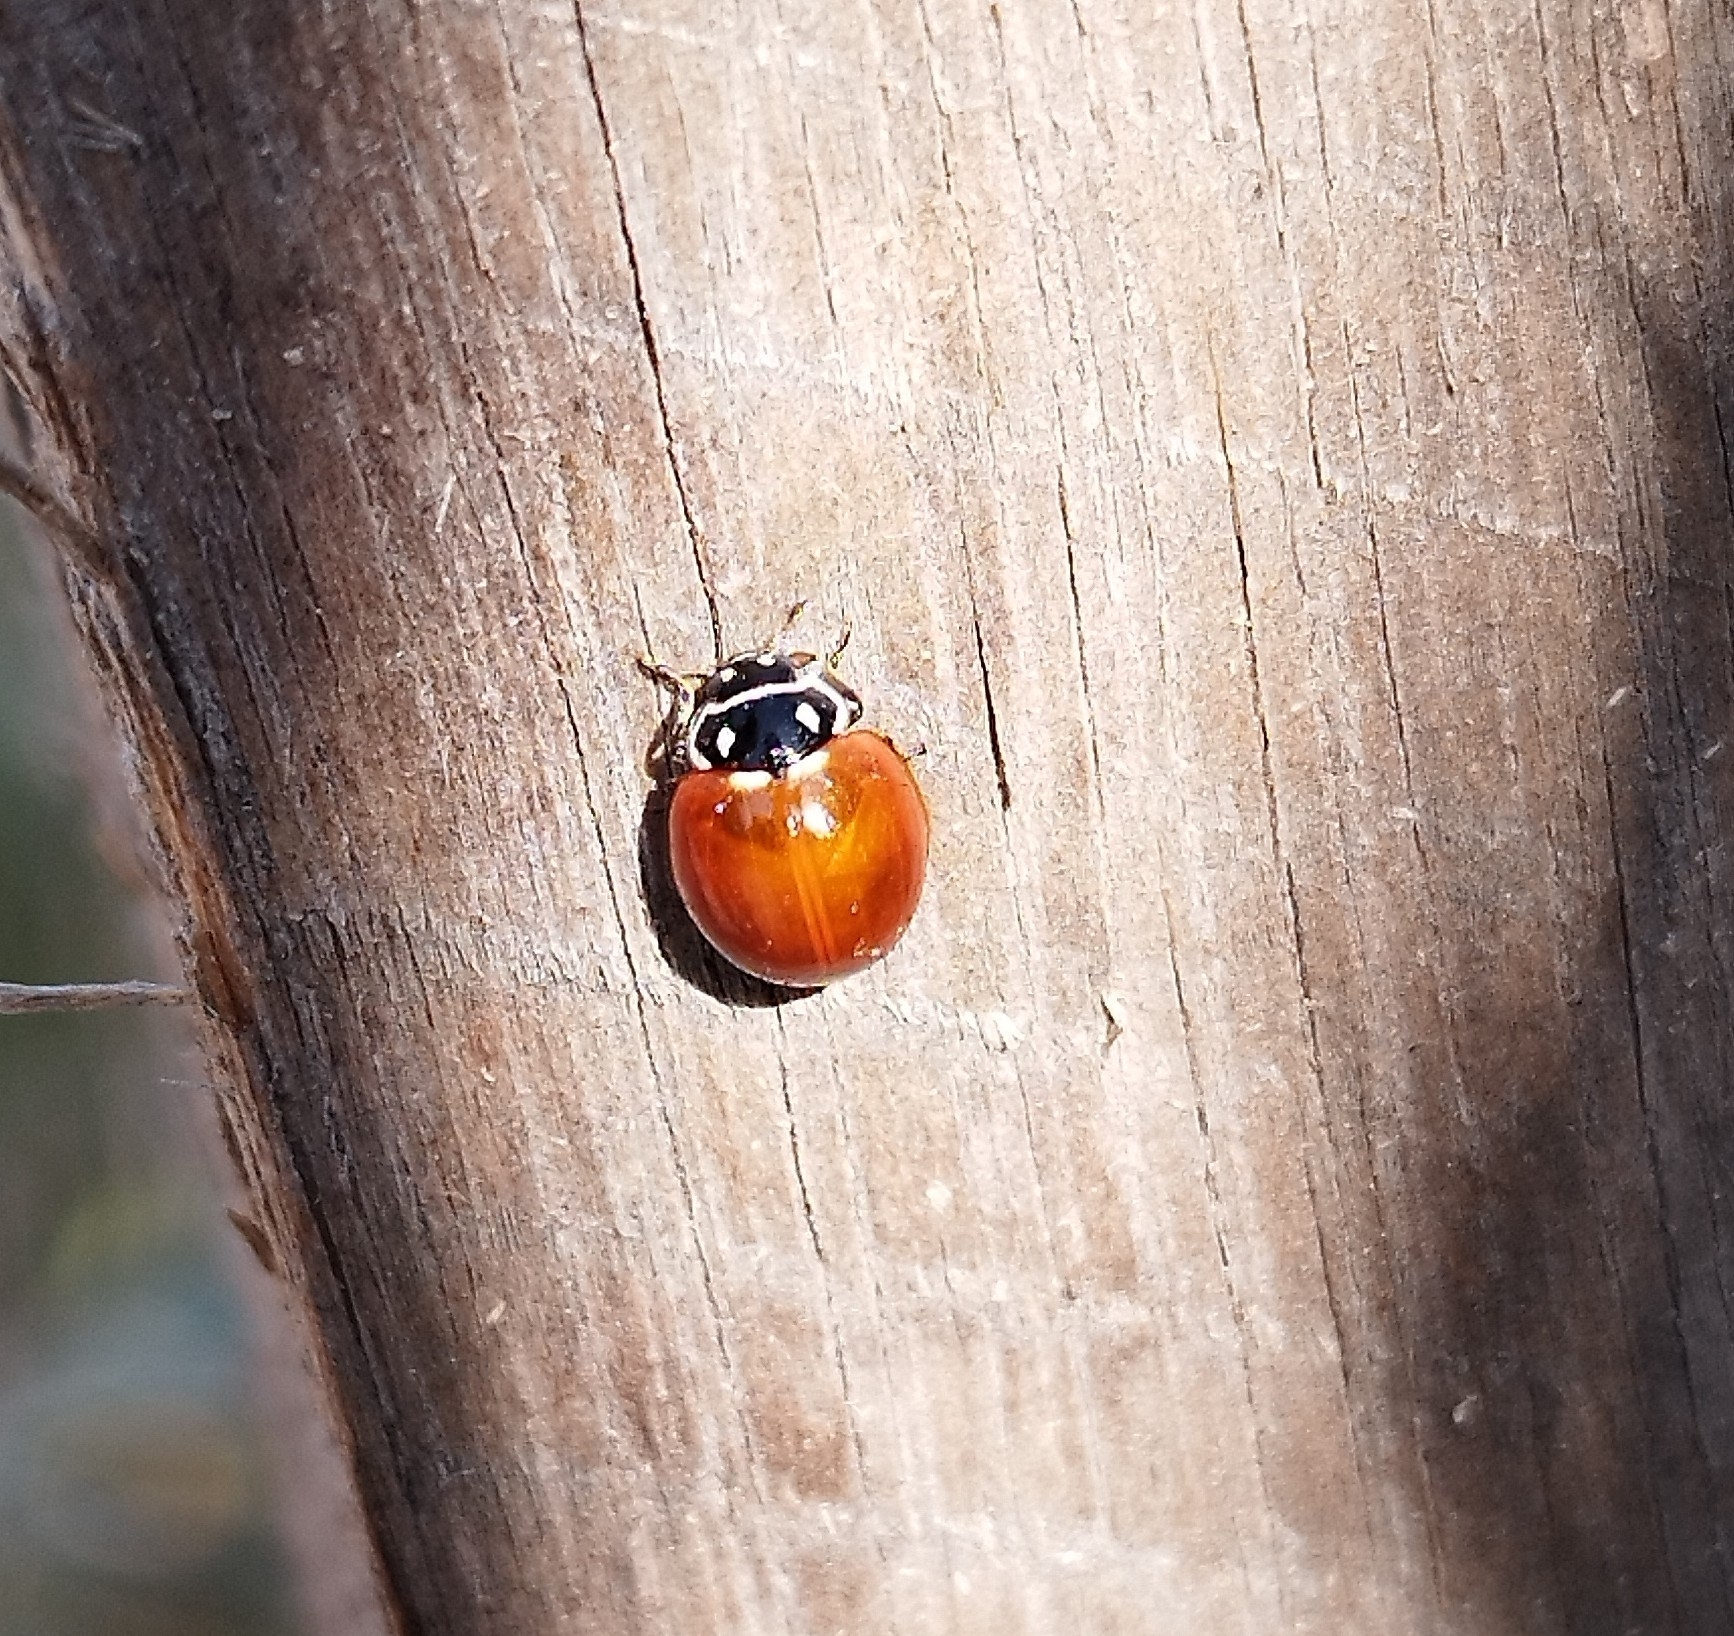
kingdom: Animalia
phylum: Arthropoda
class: Insecta
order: Coleoptera
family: Coccinellidae
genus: Cycloneda
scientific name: Cycloneda emarginata
